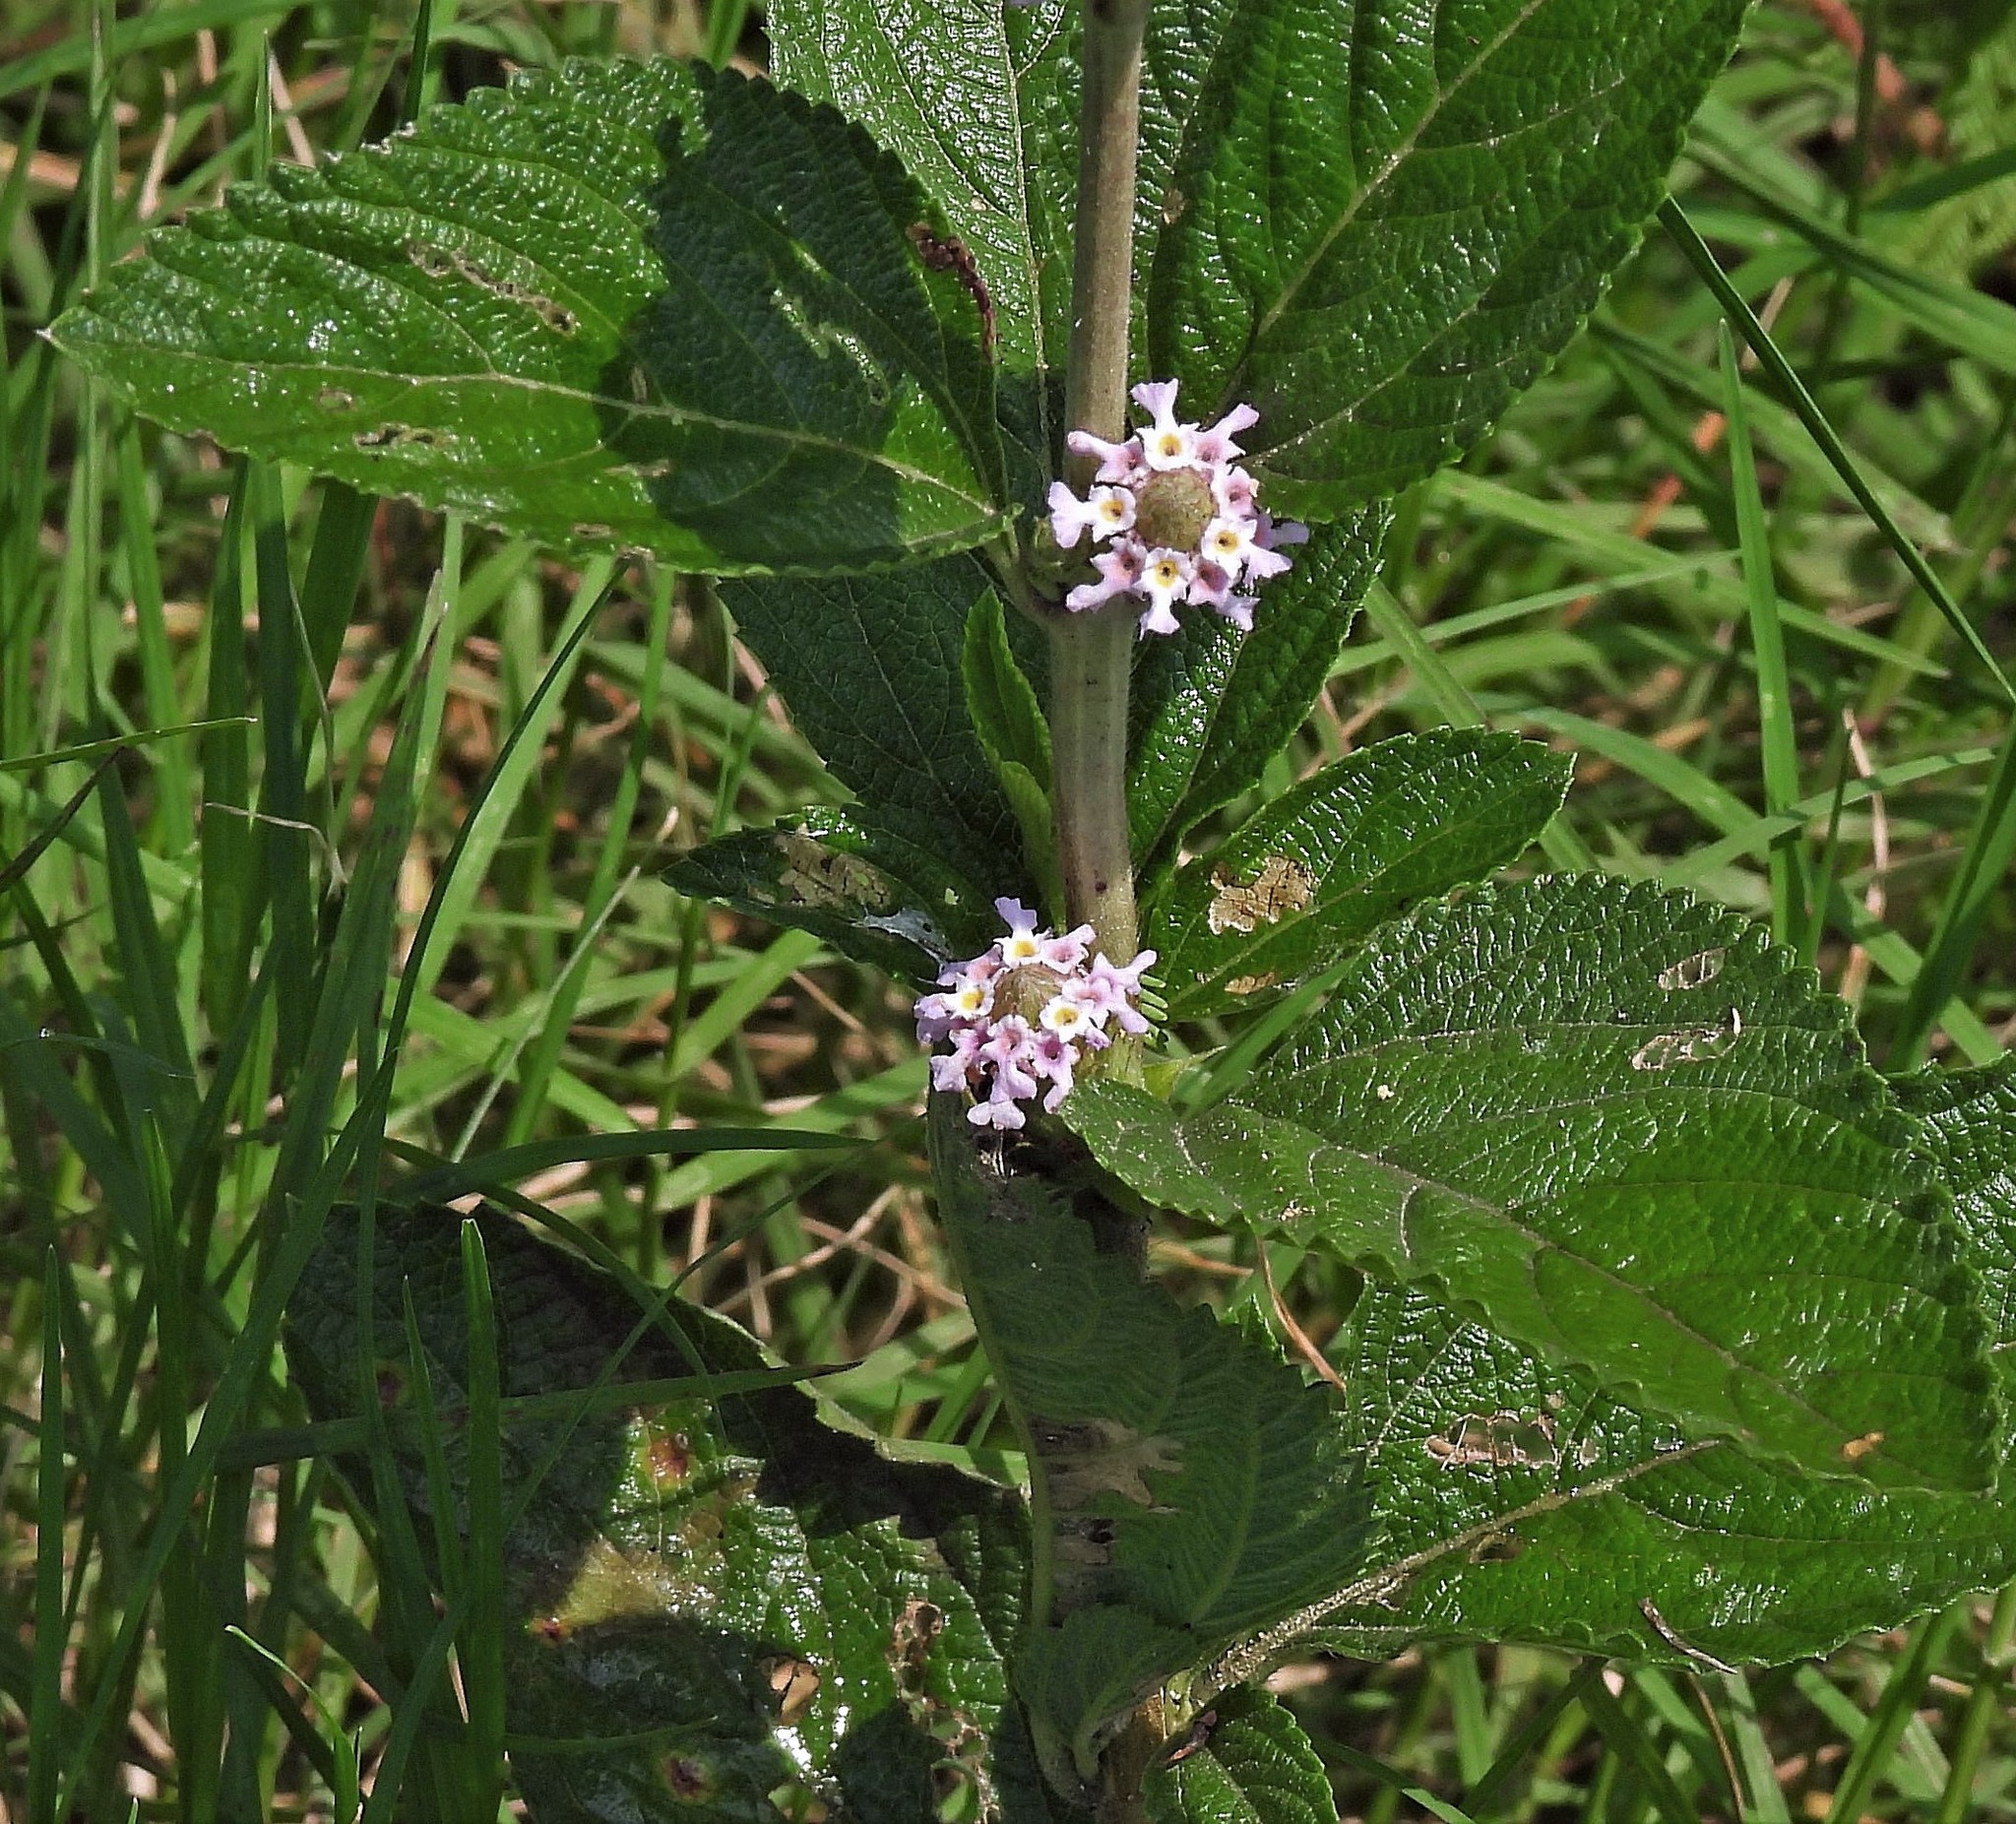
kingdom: Plantae
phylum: Tracheophyta
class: Magnoliopsida
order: Lamiales
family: Verbenaceae
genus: Lippia
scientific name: Lippia alba
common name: Bushy matgrass
